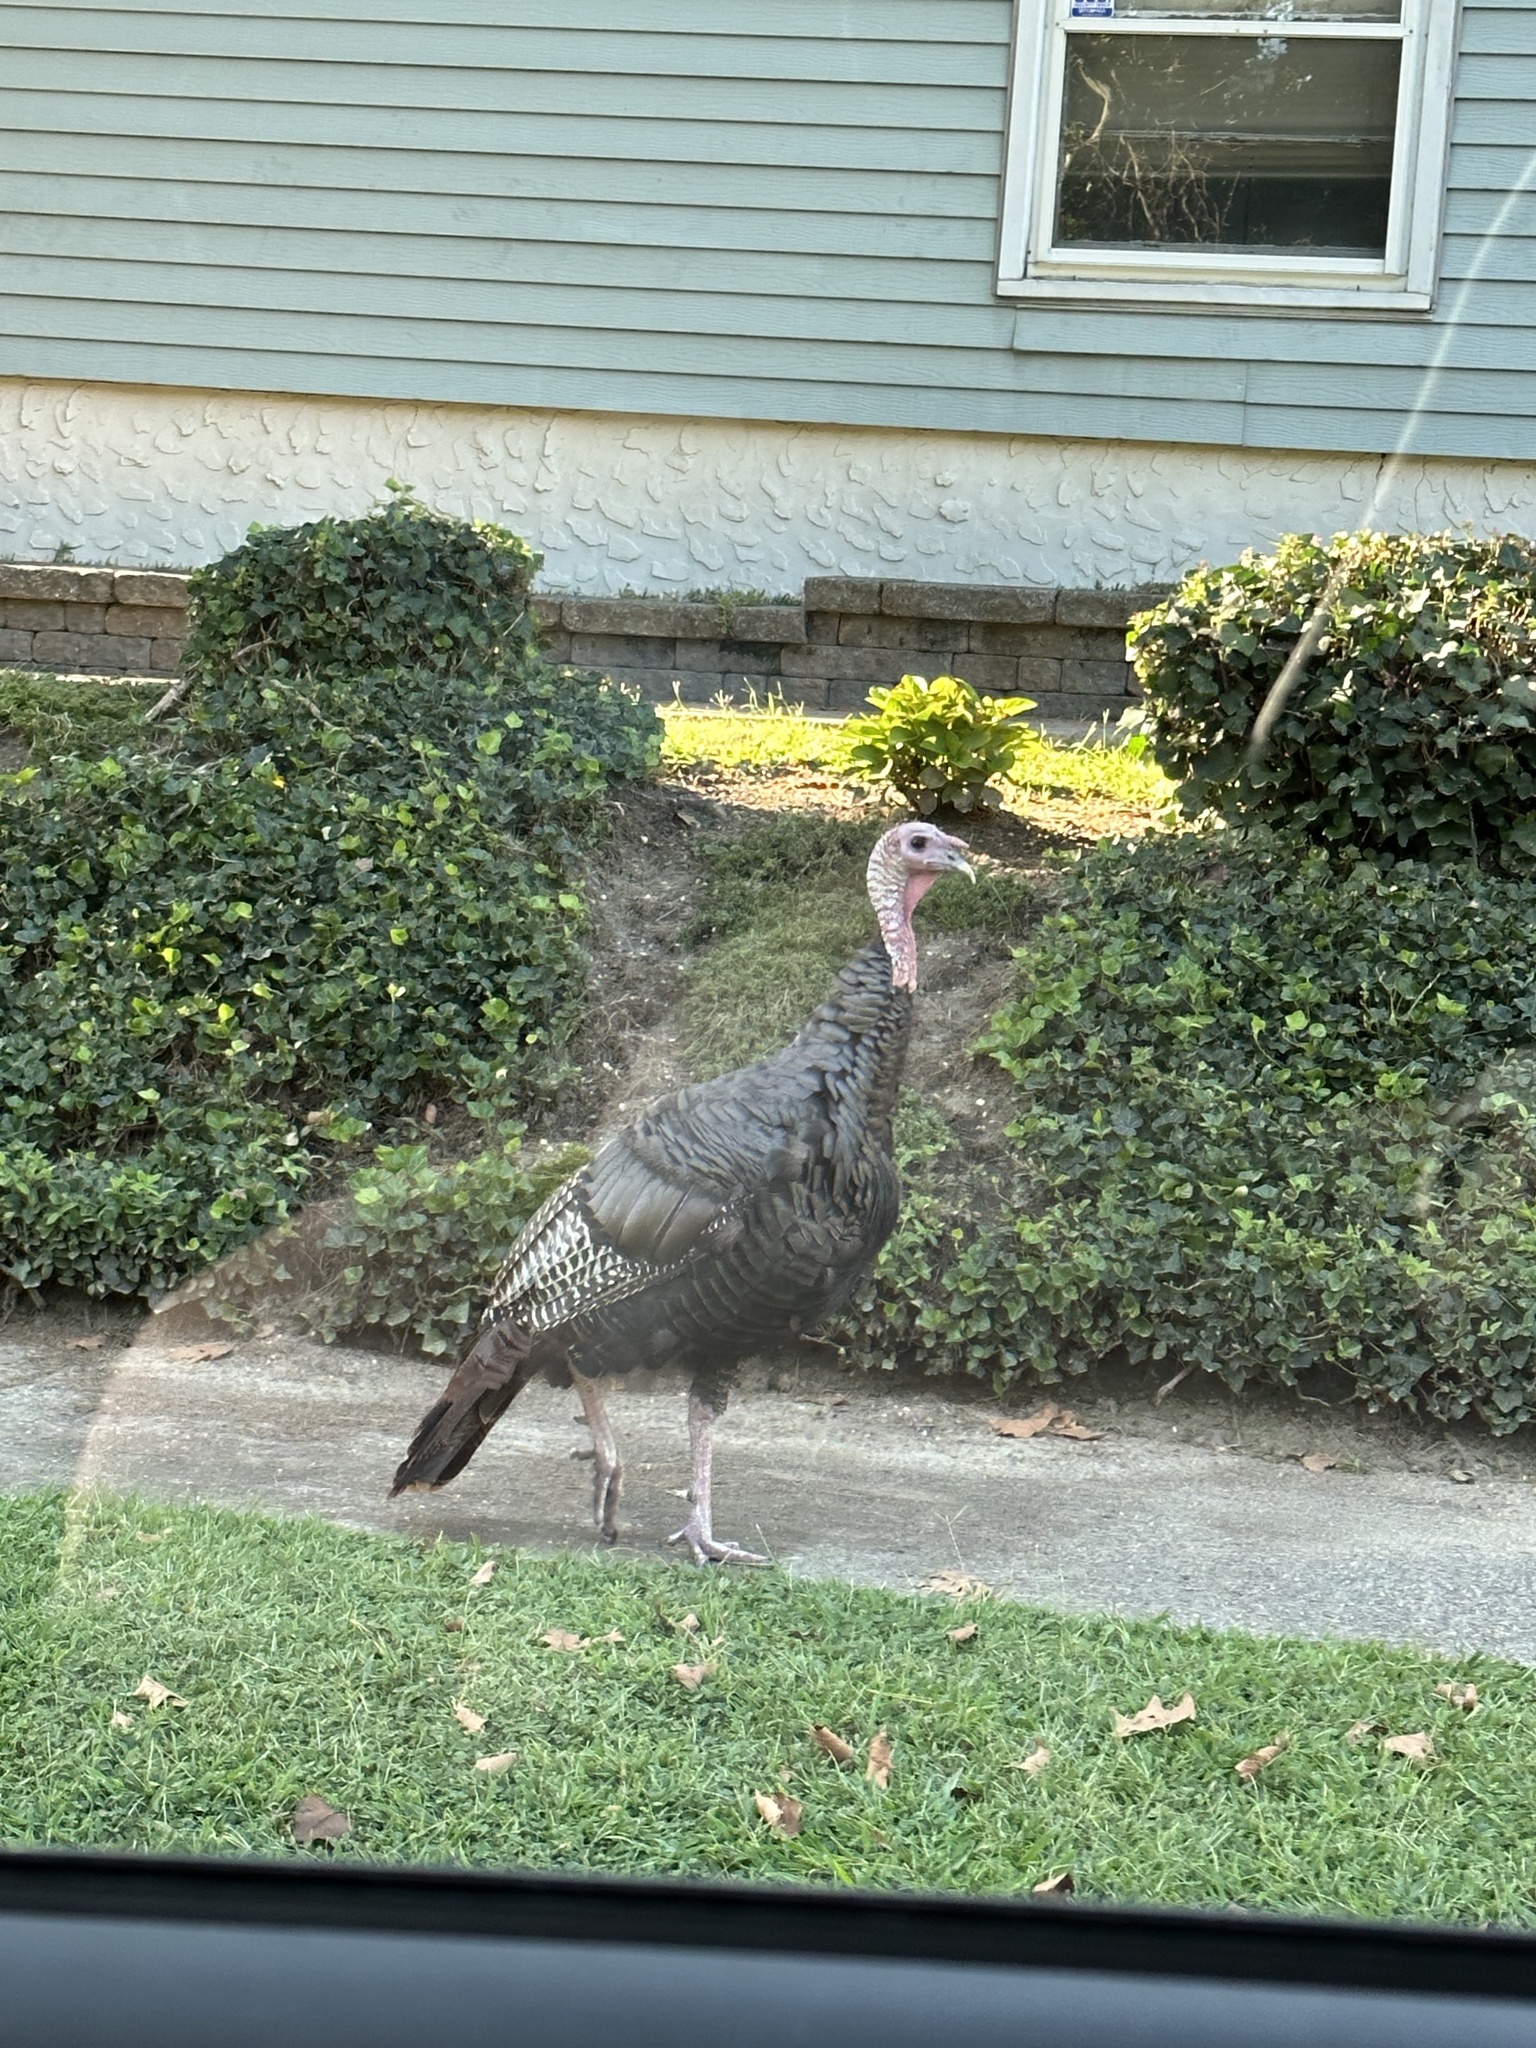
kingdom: Animalia
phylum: Chordata
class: Aves
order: Galliformes
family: Phasianidae
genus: Meleagris
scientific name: Meleagris gallopavo
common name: Wild turkey
